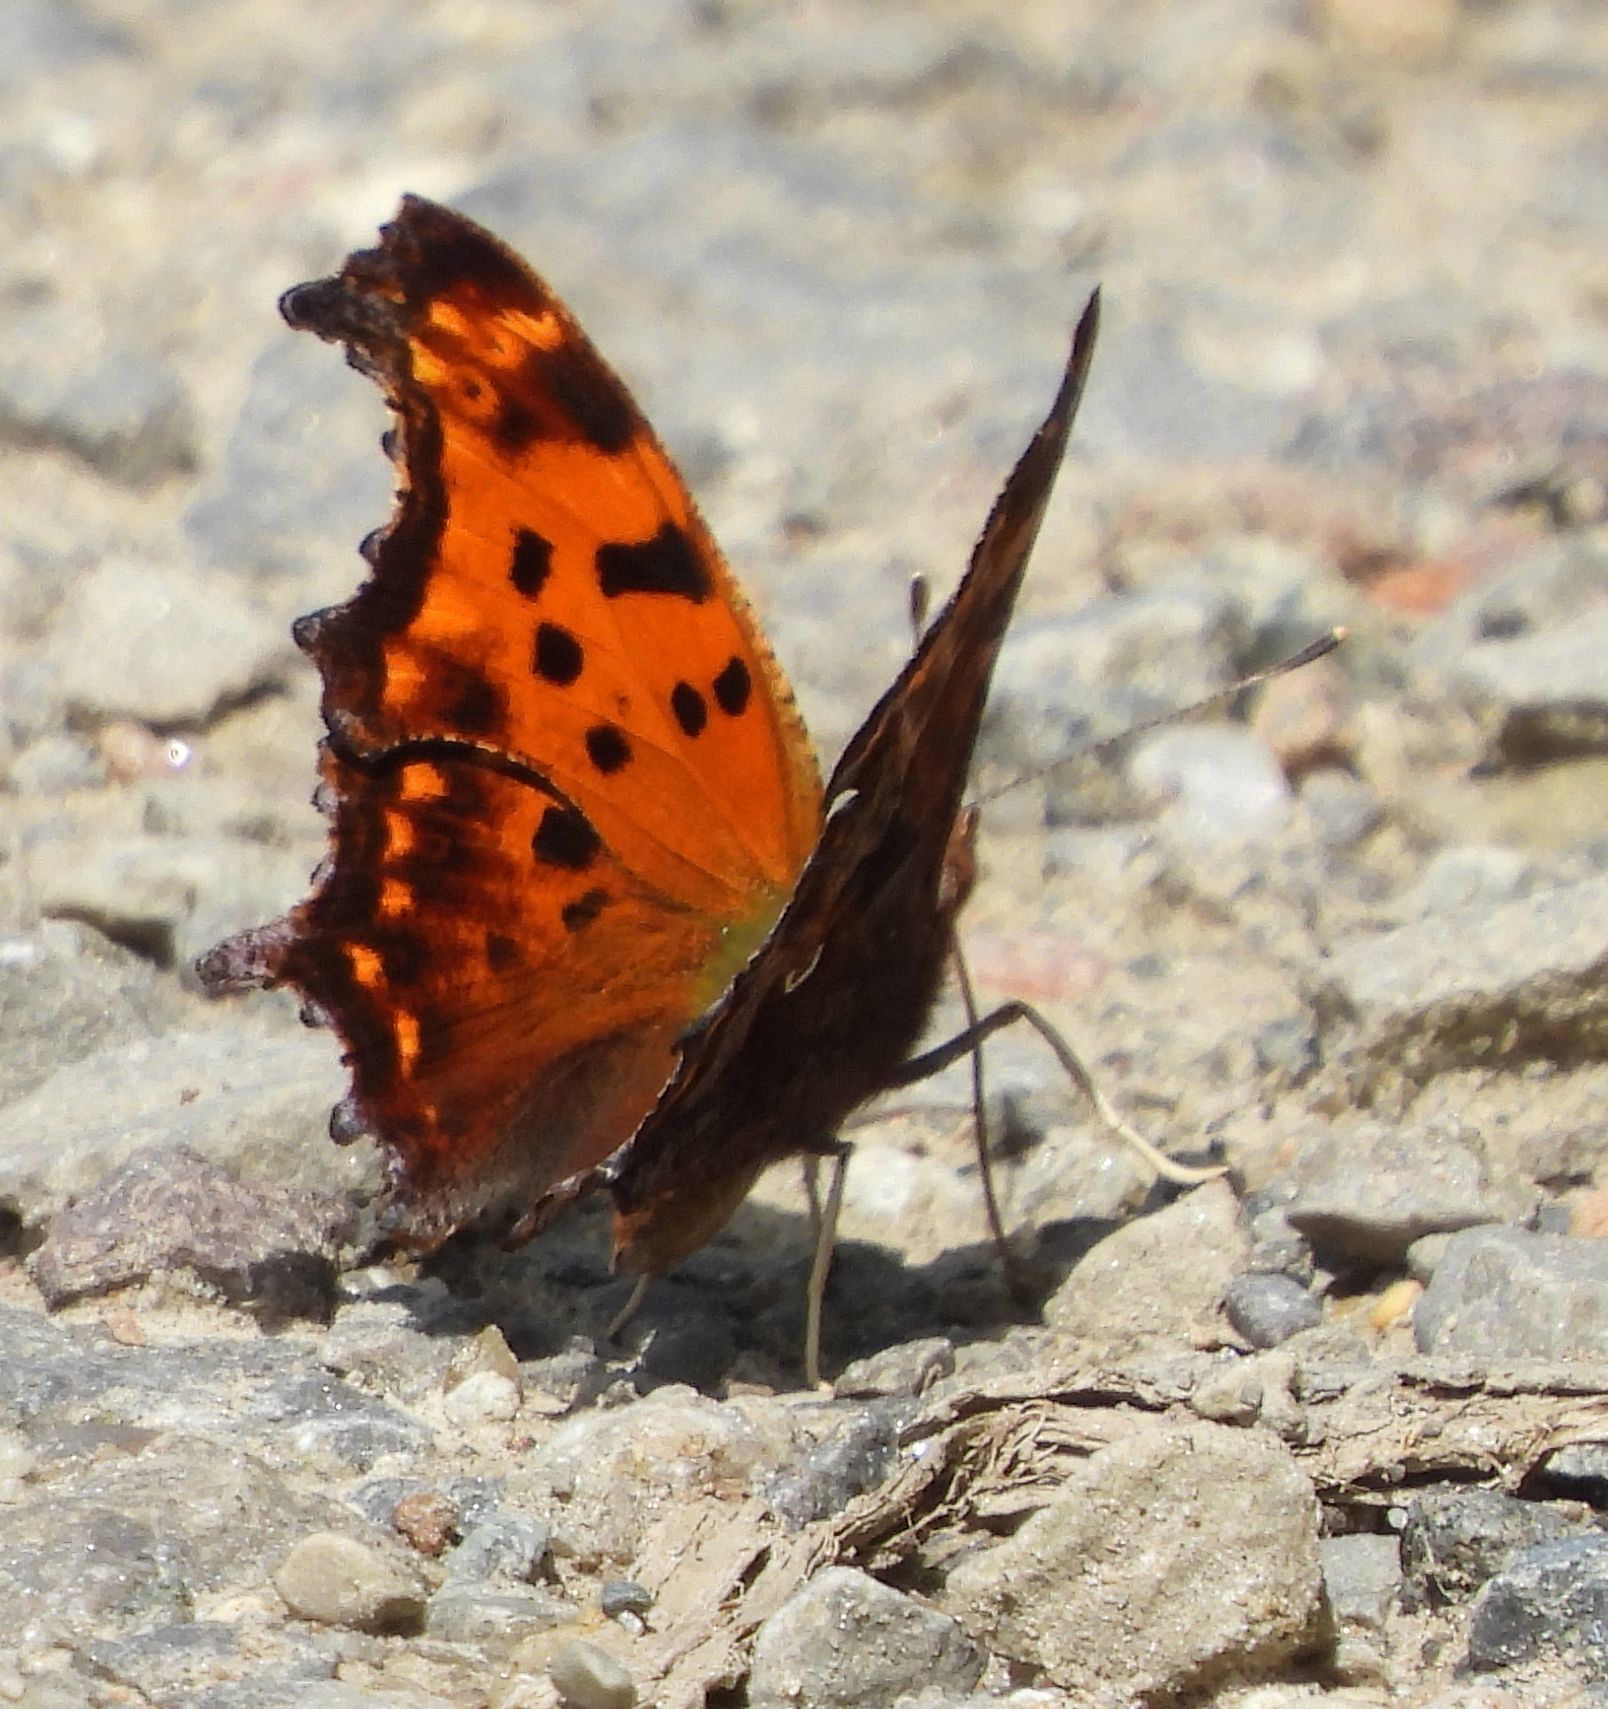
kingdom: Animalia
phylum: Arthropoda
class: Insecta
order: Lepidoptera
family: Nymphalidae
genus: Polygonia
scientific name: Polygonia comma
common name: Eastern comma
